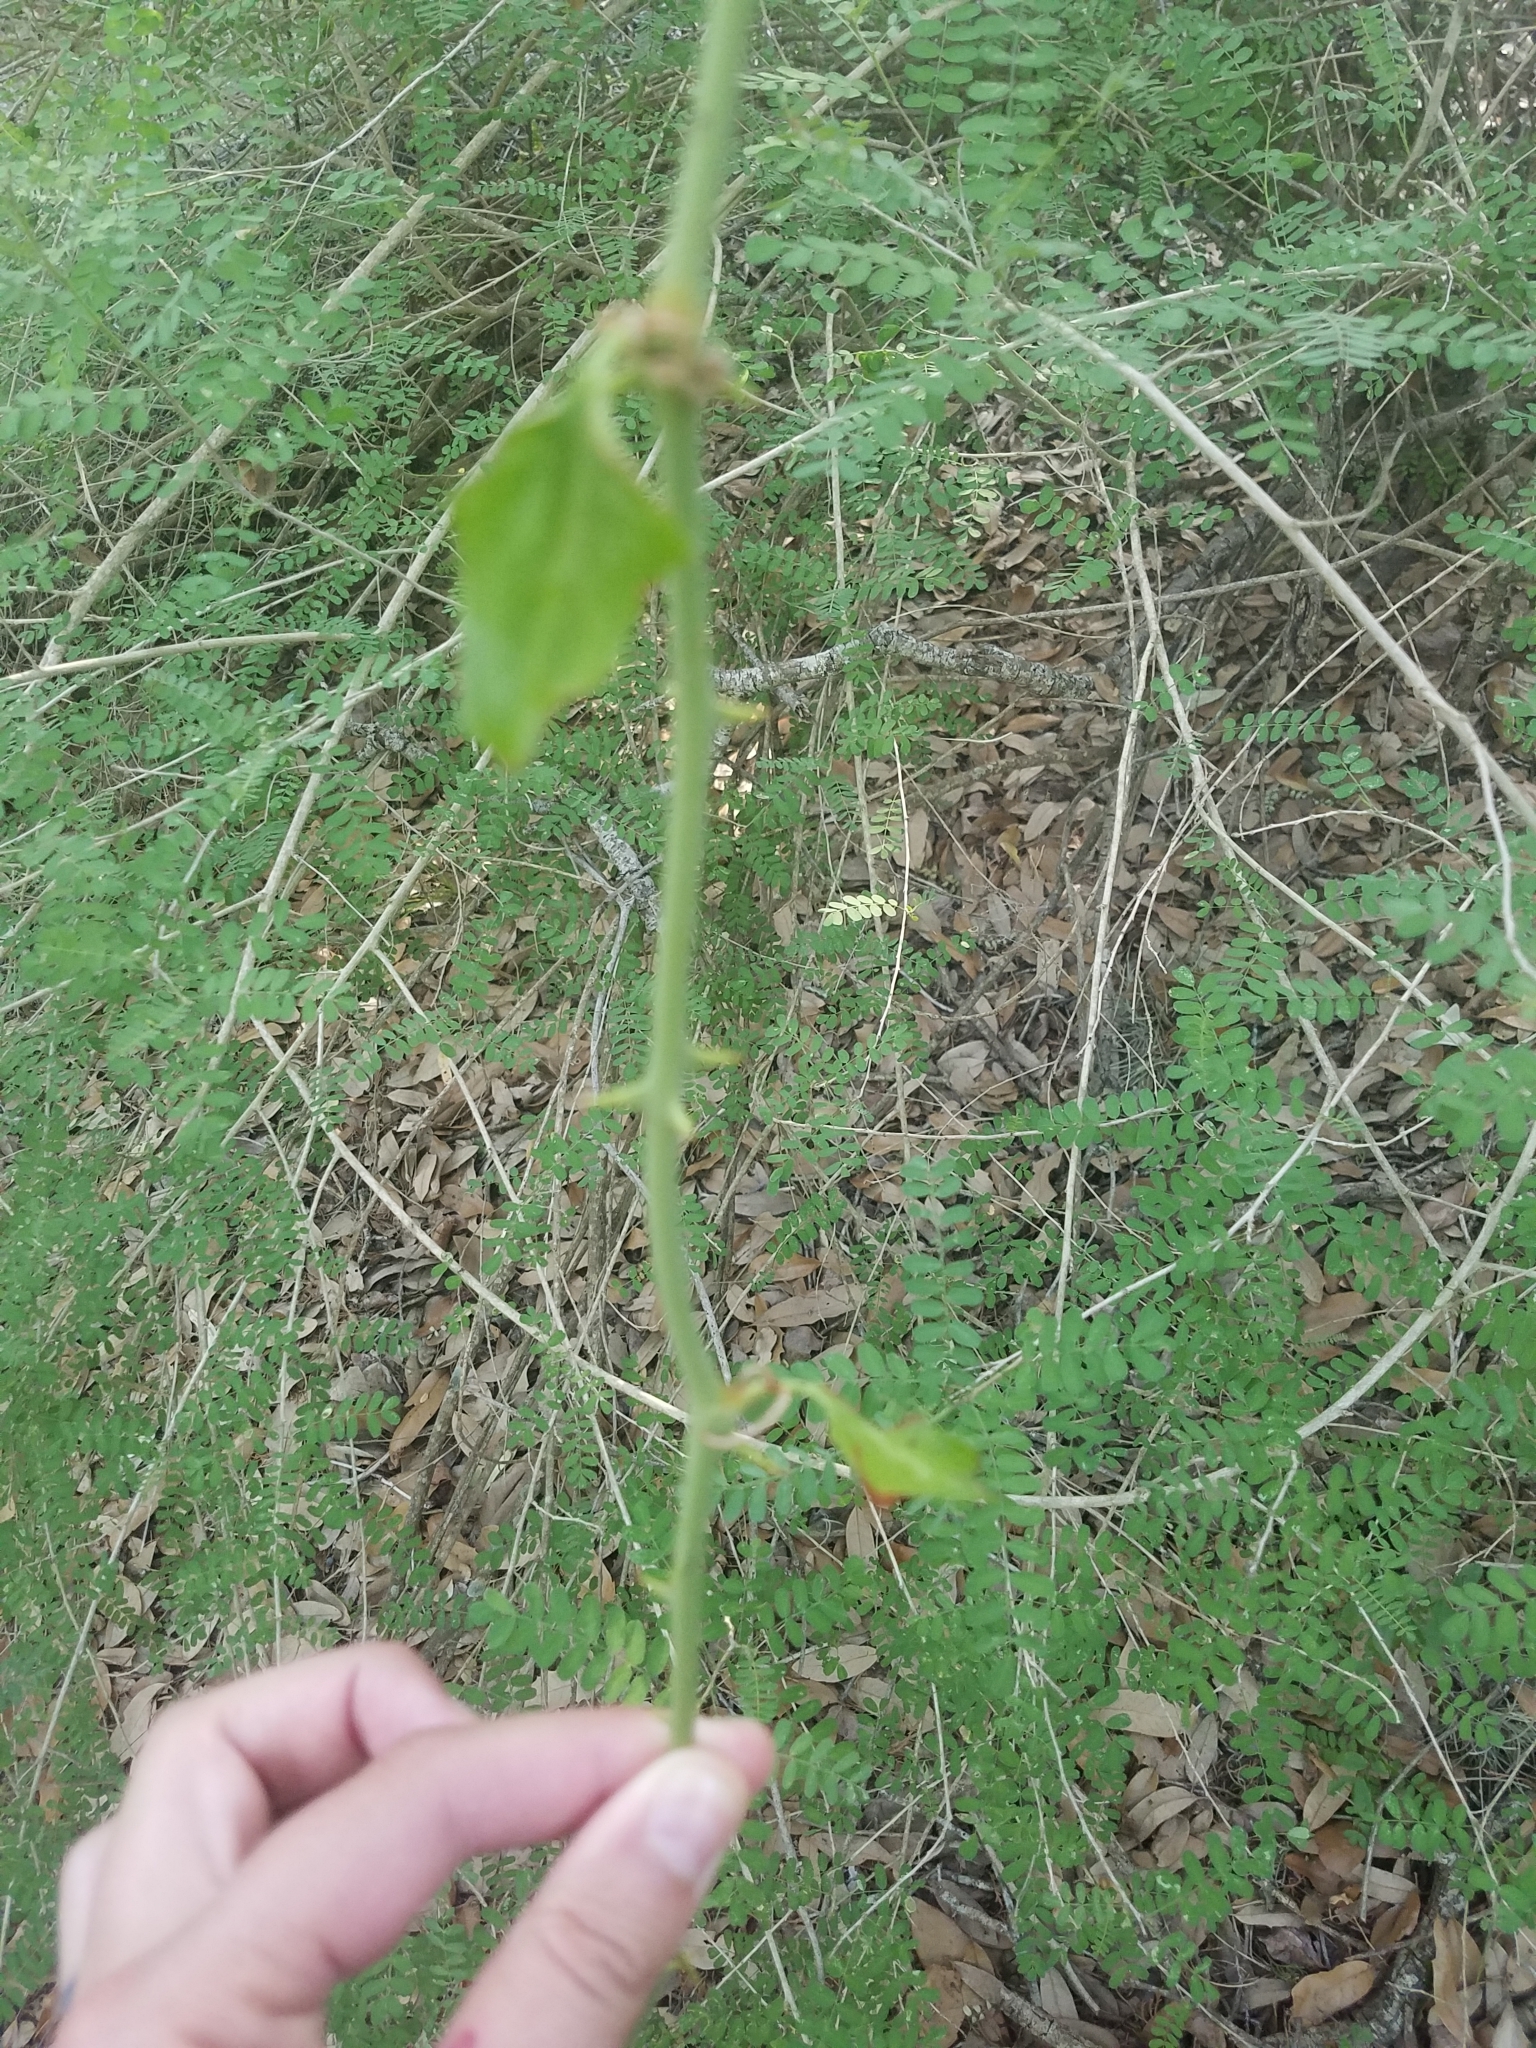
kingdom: Plantae
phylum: Tracheophyta
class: Liliopsida
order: Liliales
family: Smilacaceae
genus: Smilax
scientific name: Smilax bona-nox
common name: Catbrier
